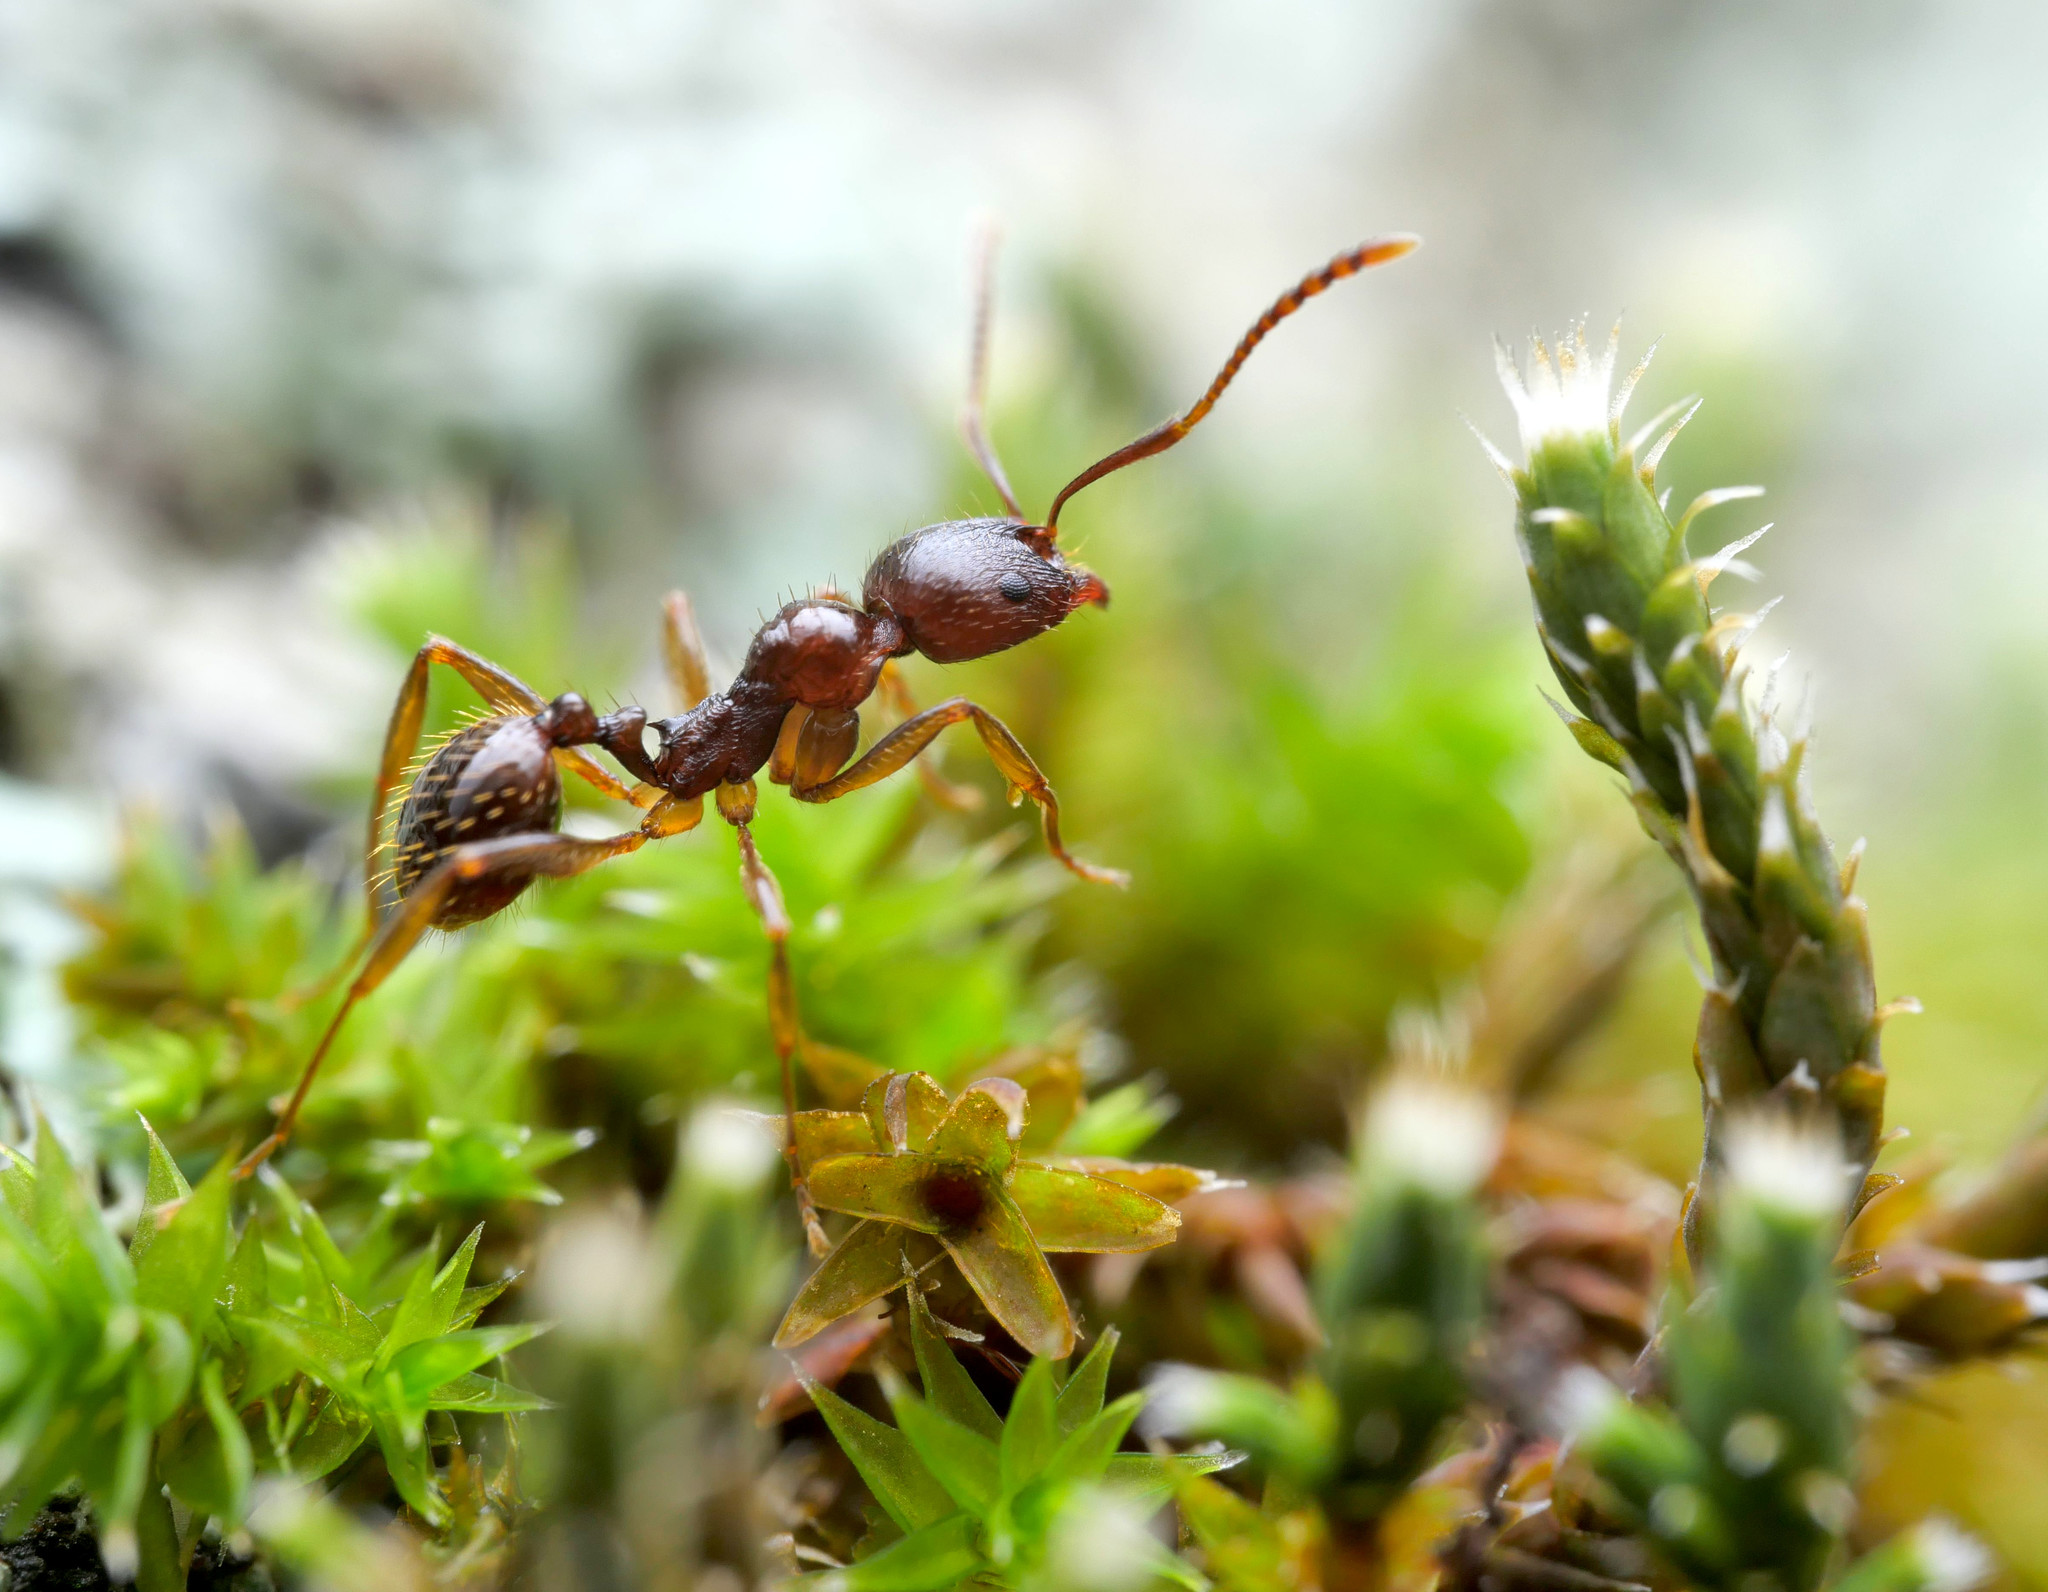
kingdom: Animalia
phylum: Arthropoda
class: Insecta
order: Hymenoptera
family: Formicidae
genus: Aphaenogaster
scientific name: Aphaenogaster subterranea
